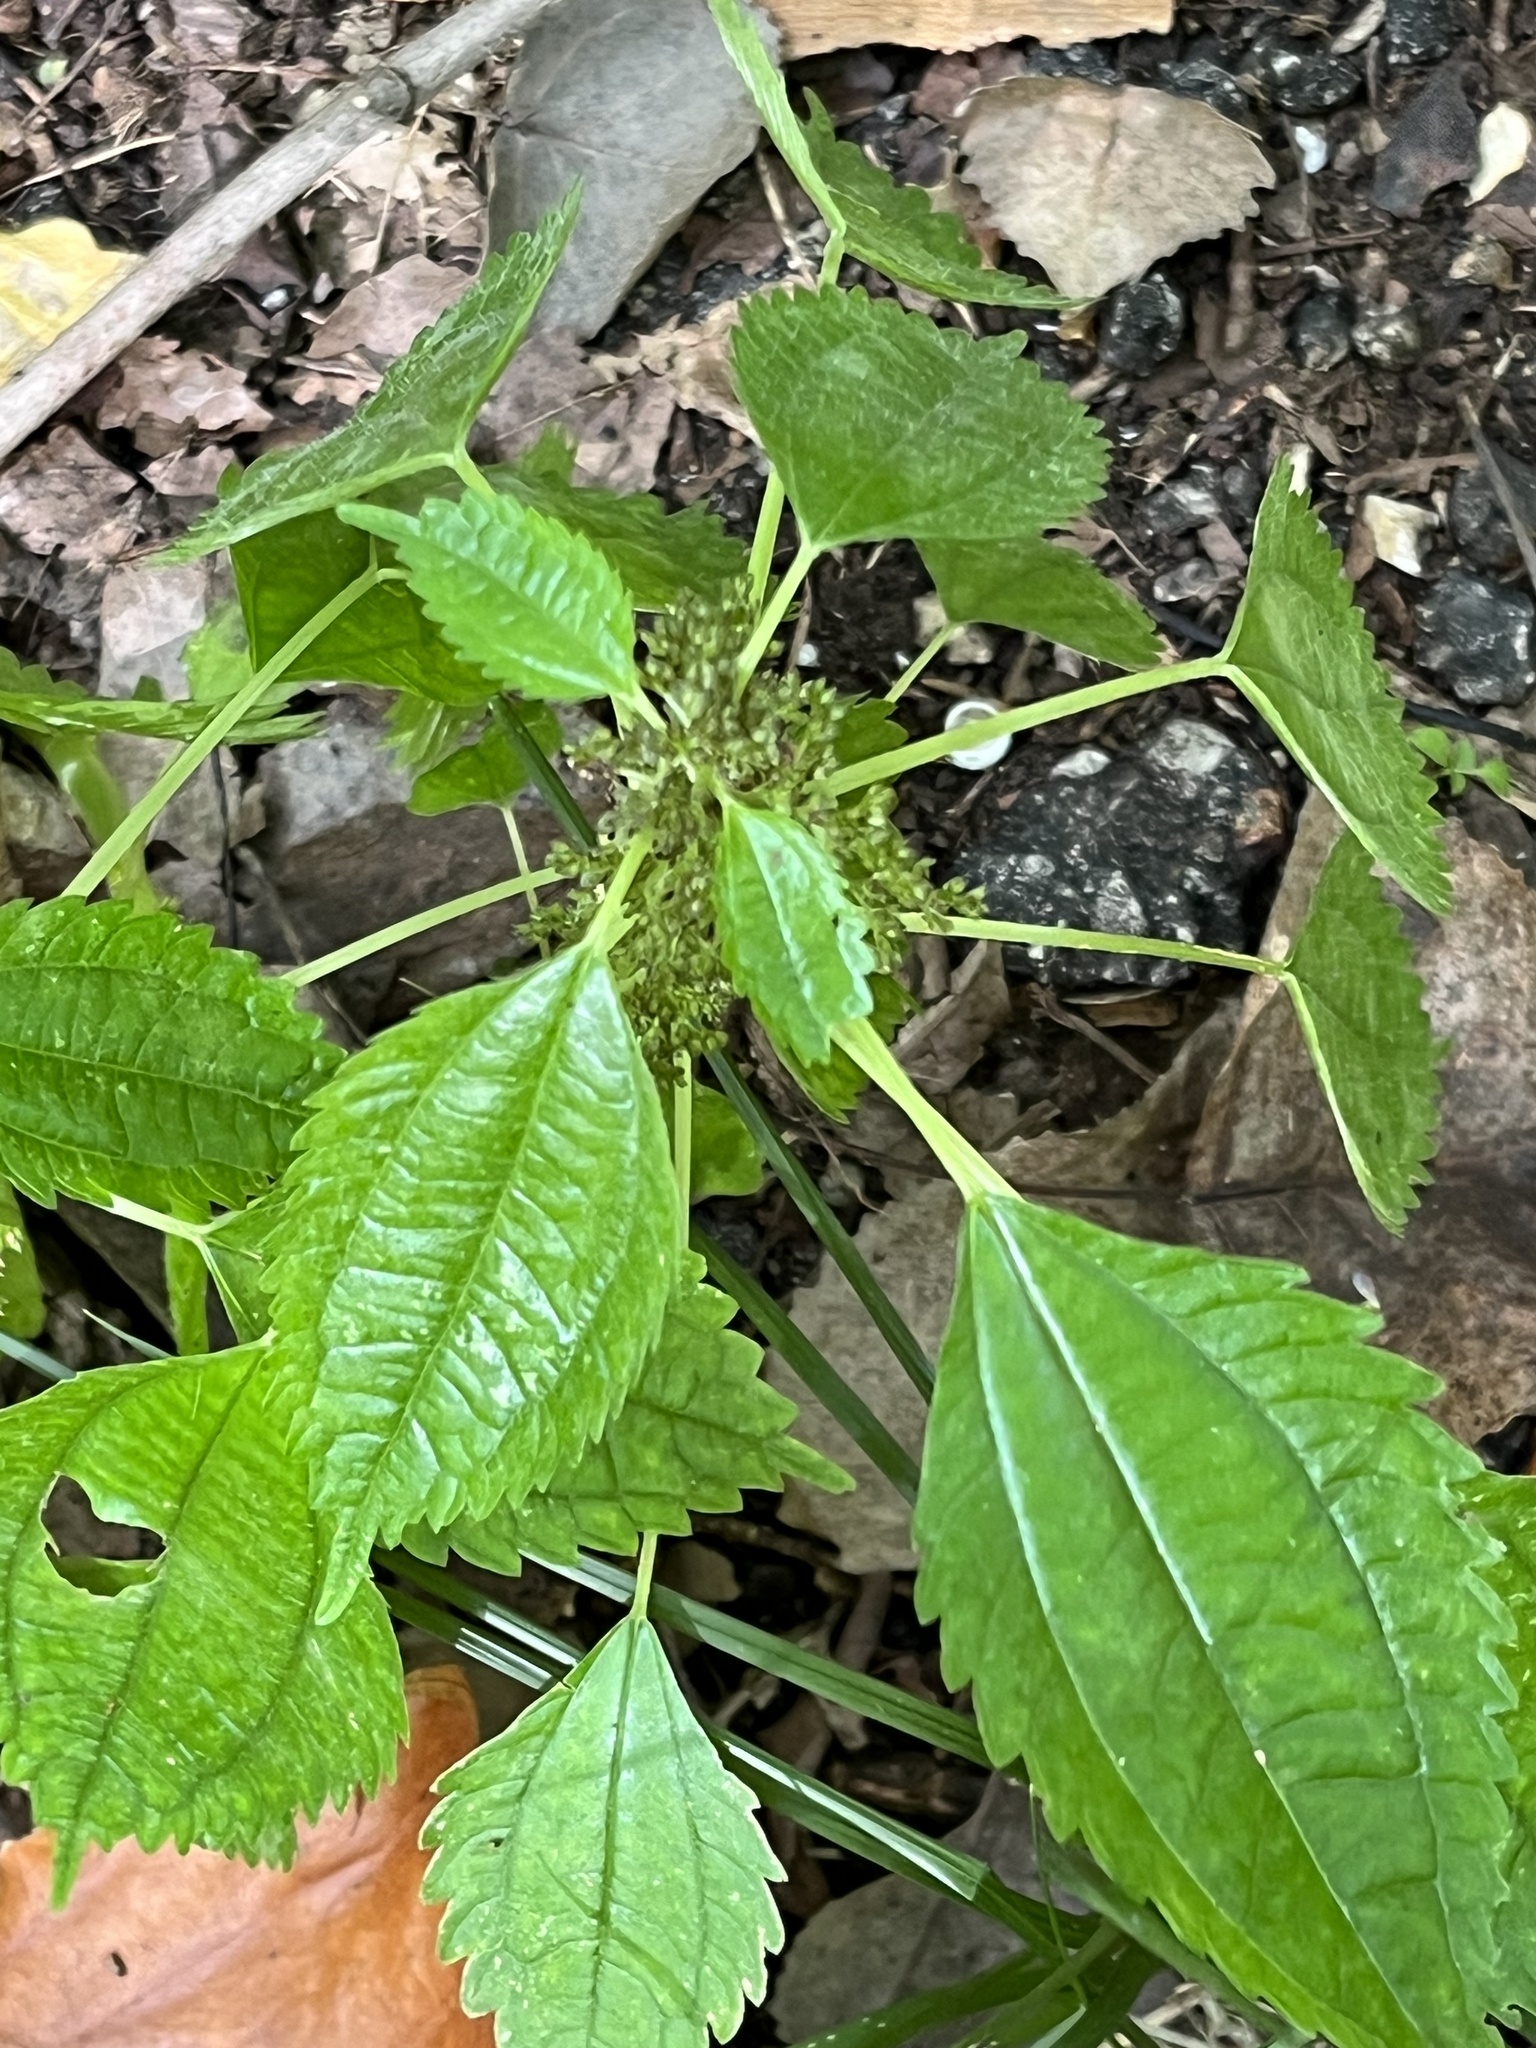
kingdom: Plantae
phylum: Tracheophyta
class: Magnoliopsida
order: Rosales
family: Urticaceae
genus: Pilea
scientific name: Pilea pumila
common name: Clearweed
